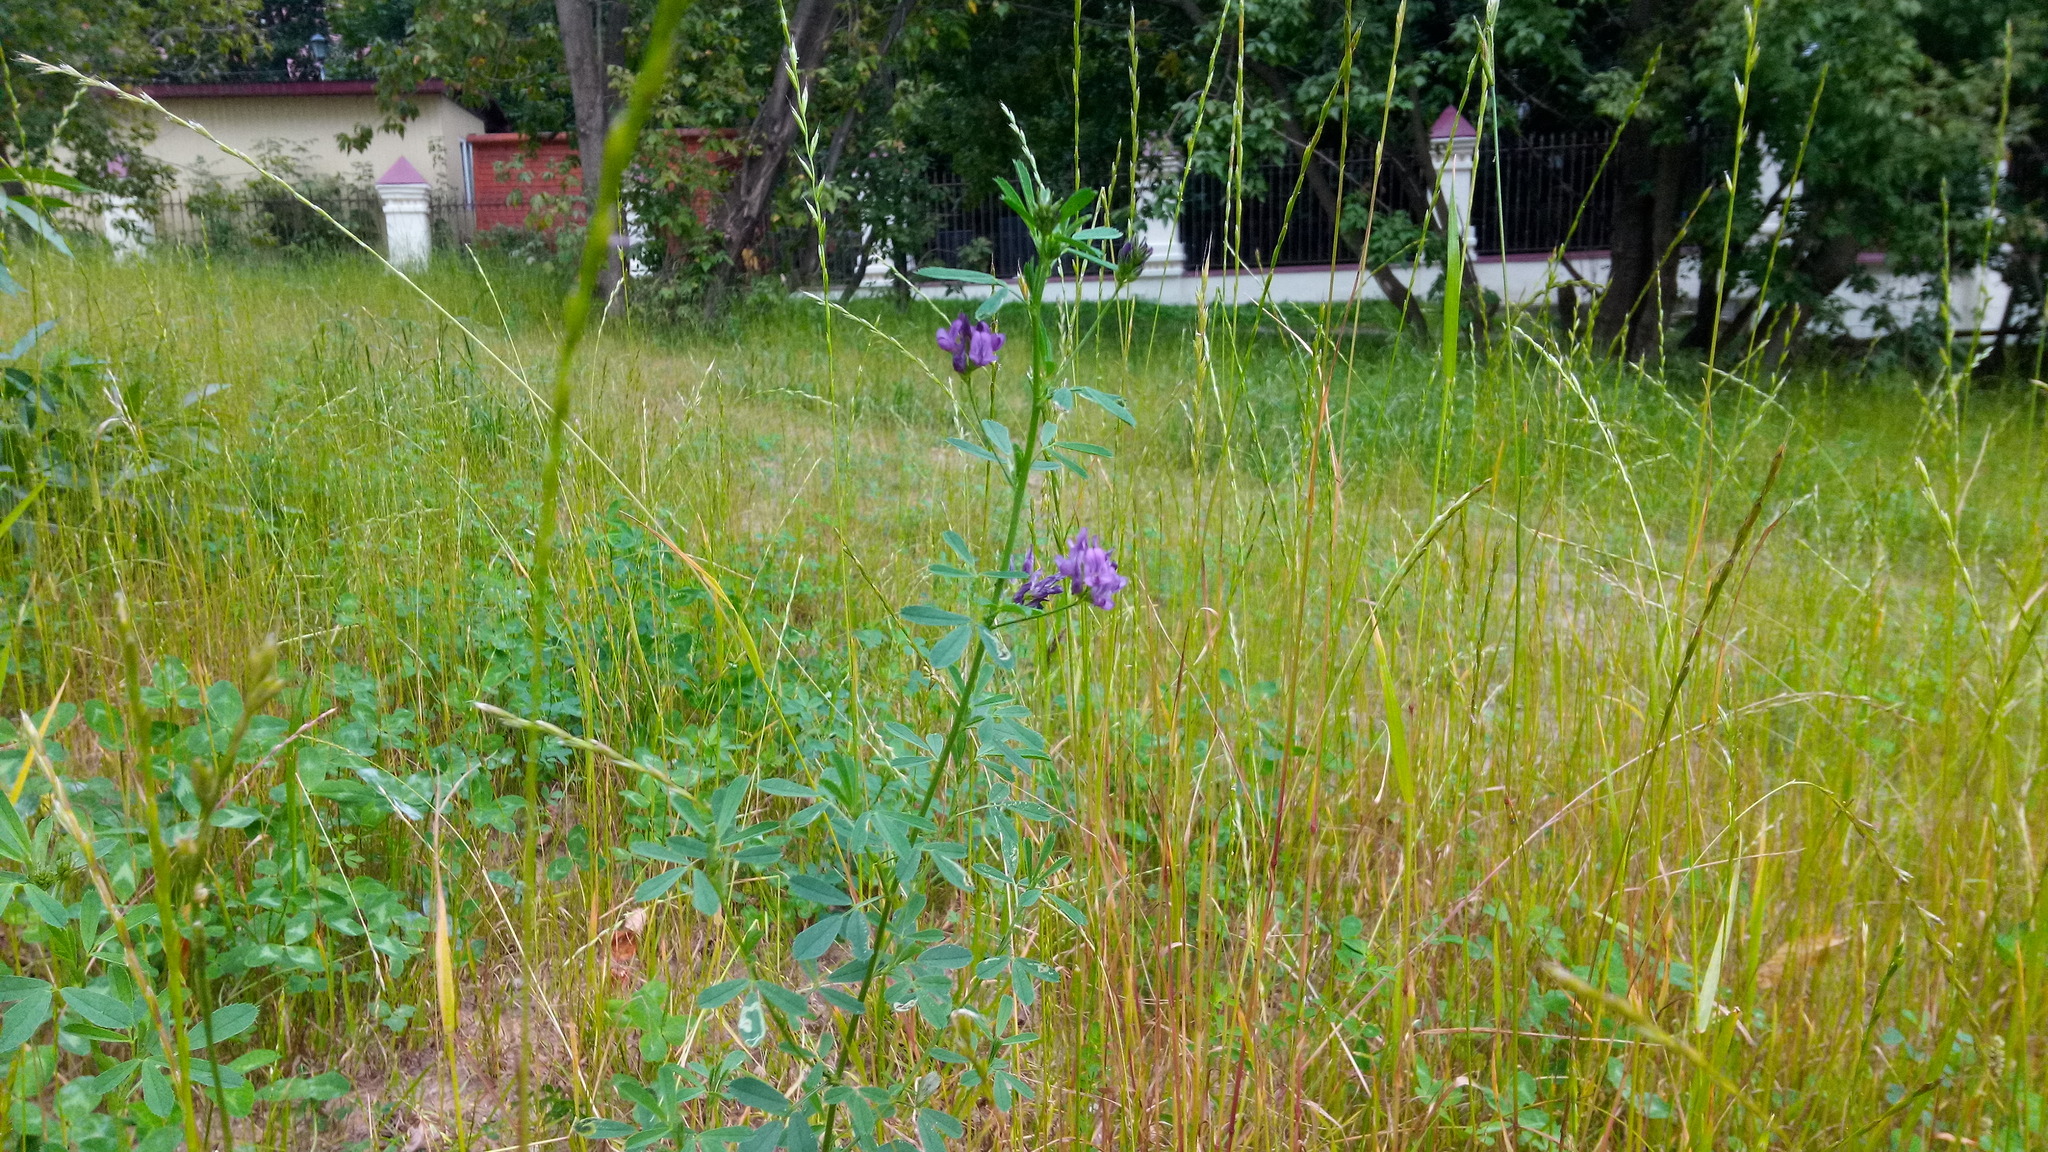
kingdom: Plantae
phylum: Tracheophyta
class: Magnoliopsida
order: Fabales
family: Fabaceae
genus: Medicago
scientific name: Medicago varia
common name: Sand lucerne
